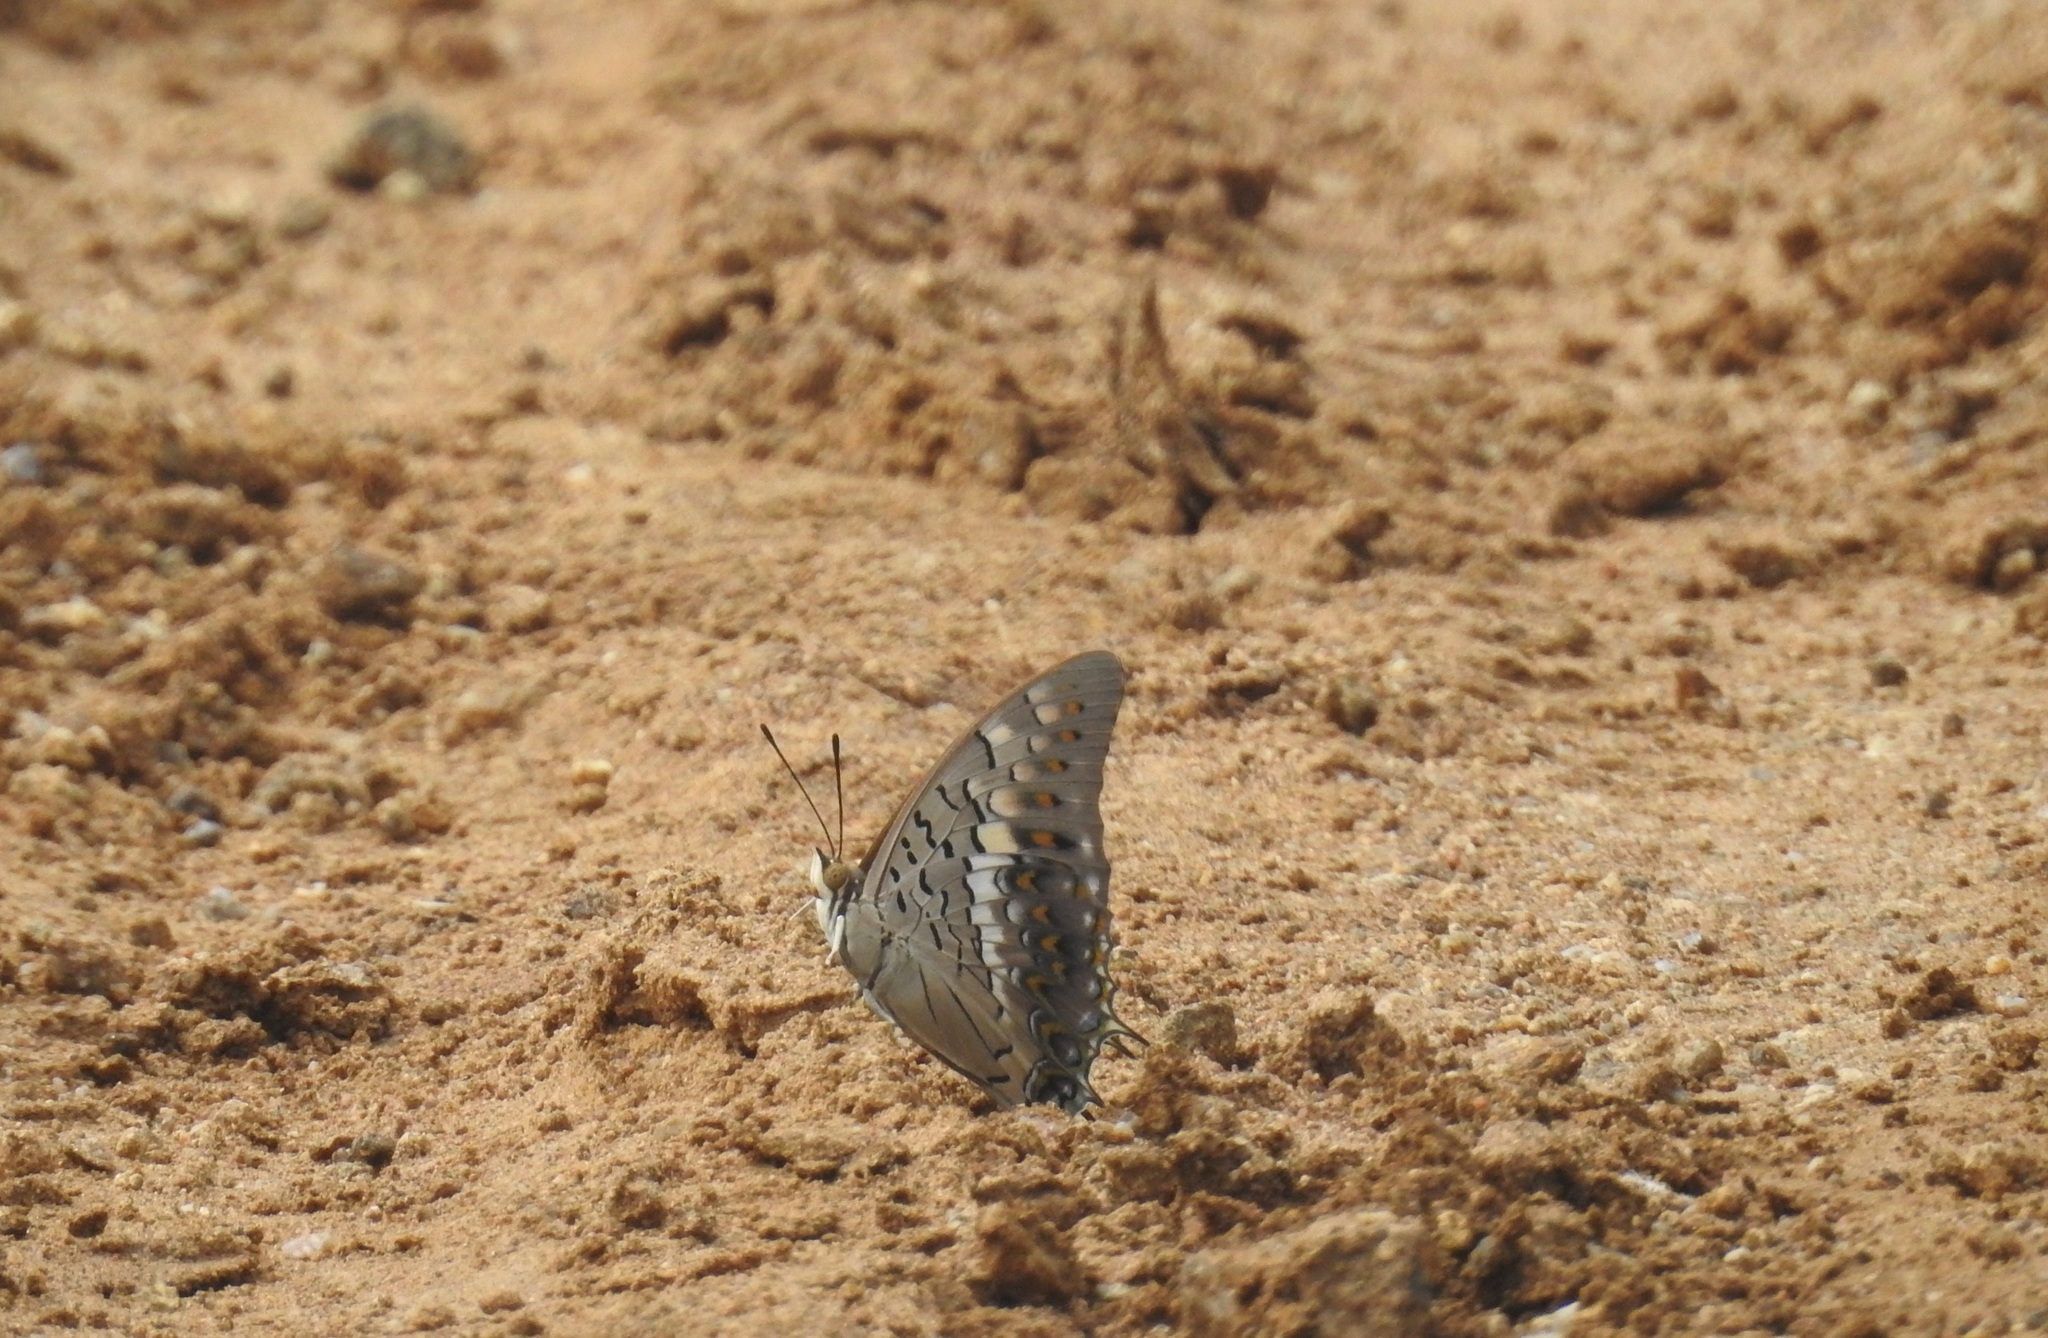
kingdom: Animalia
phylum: Arthropoda
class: Insecta
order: Lepidoptera
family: Nymphalidae
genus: Charaxes
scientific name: Charaxes solon
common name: Black rajah
